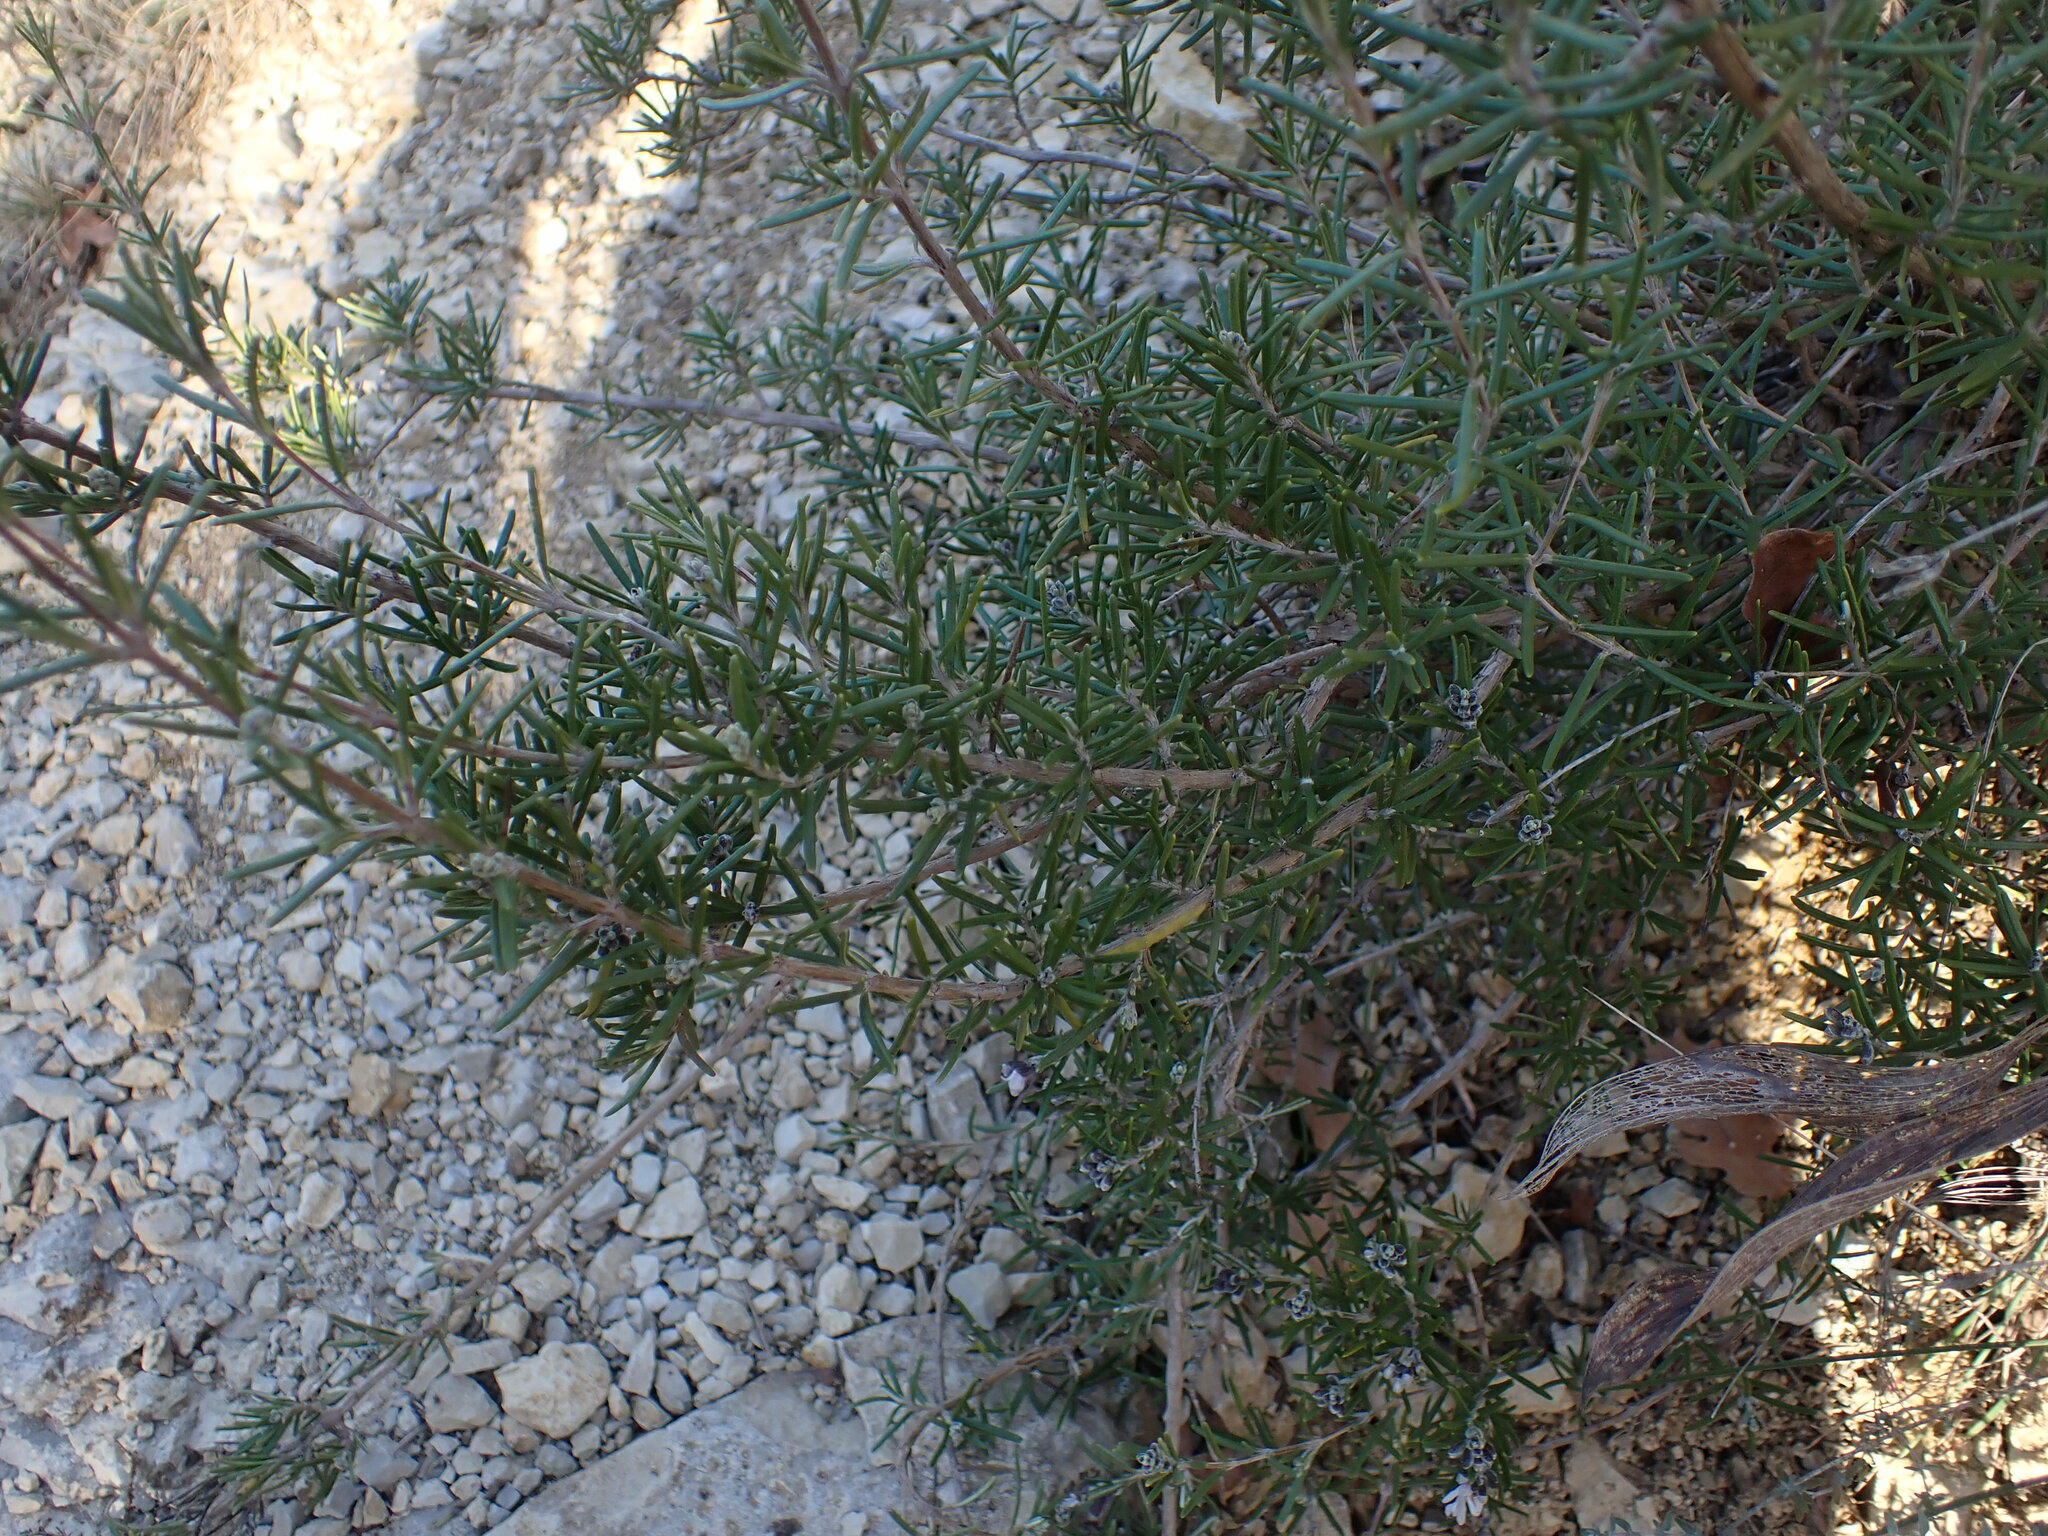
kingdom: Plantae
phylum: Tracheophyta
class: Magnoliopsida
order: Lamiales
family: Lamiaceae
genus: Salvia
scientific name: Salvia rosmarinus
